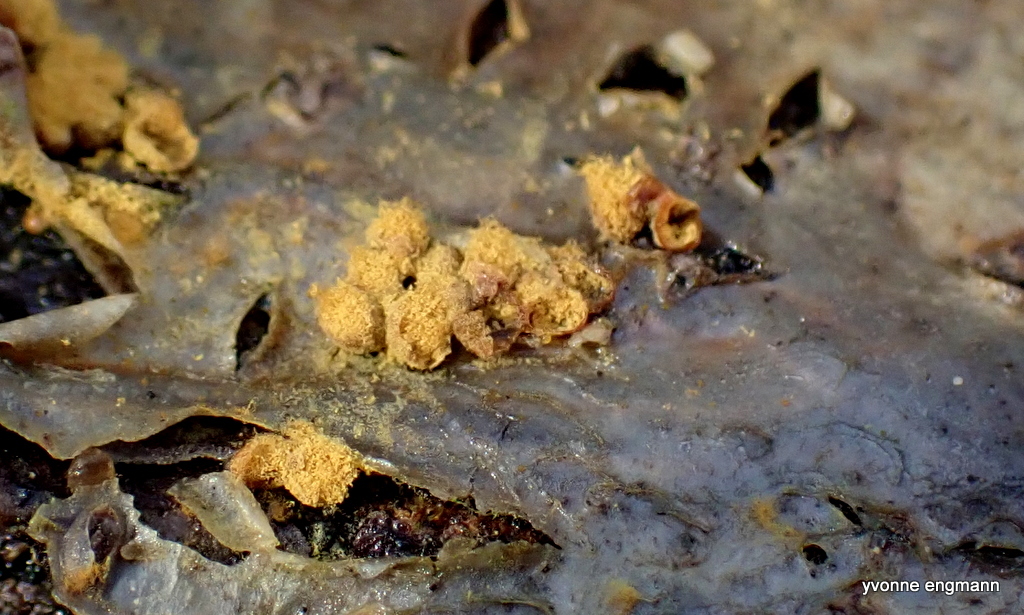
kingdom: Protozoa
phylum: Mycetozoa
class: Myxomycetes
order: Trichiales
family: Trichiaceae
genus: Trichia
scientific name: Trichia varia
